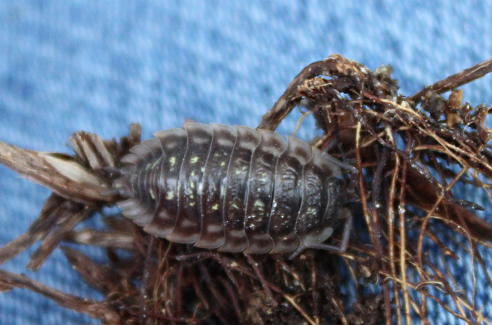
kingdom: Animalia
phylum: Arthropoda
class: Malacostraca
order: Isopoda
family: Oniscidae
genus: Oniscus
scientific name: Oniscus asellus
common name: Common shiny woodlouse
